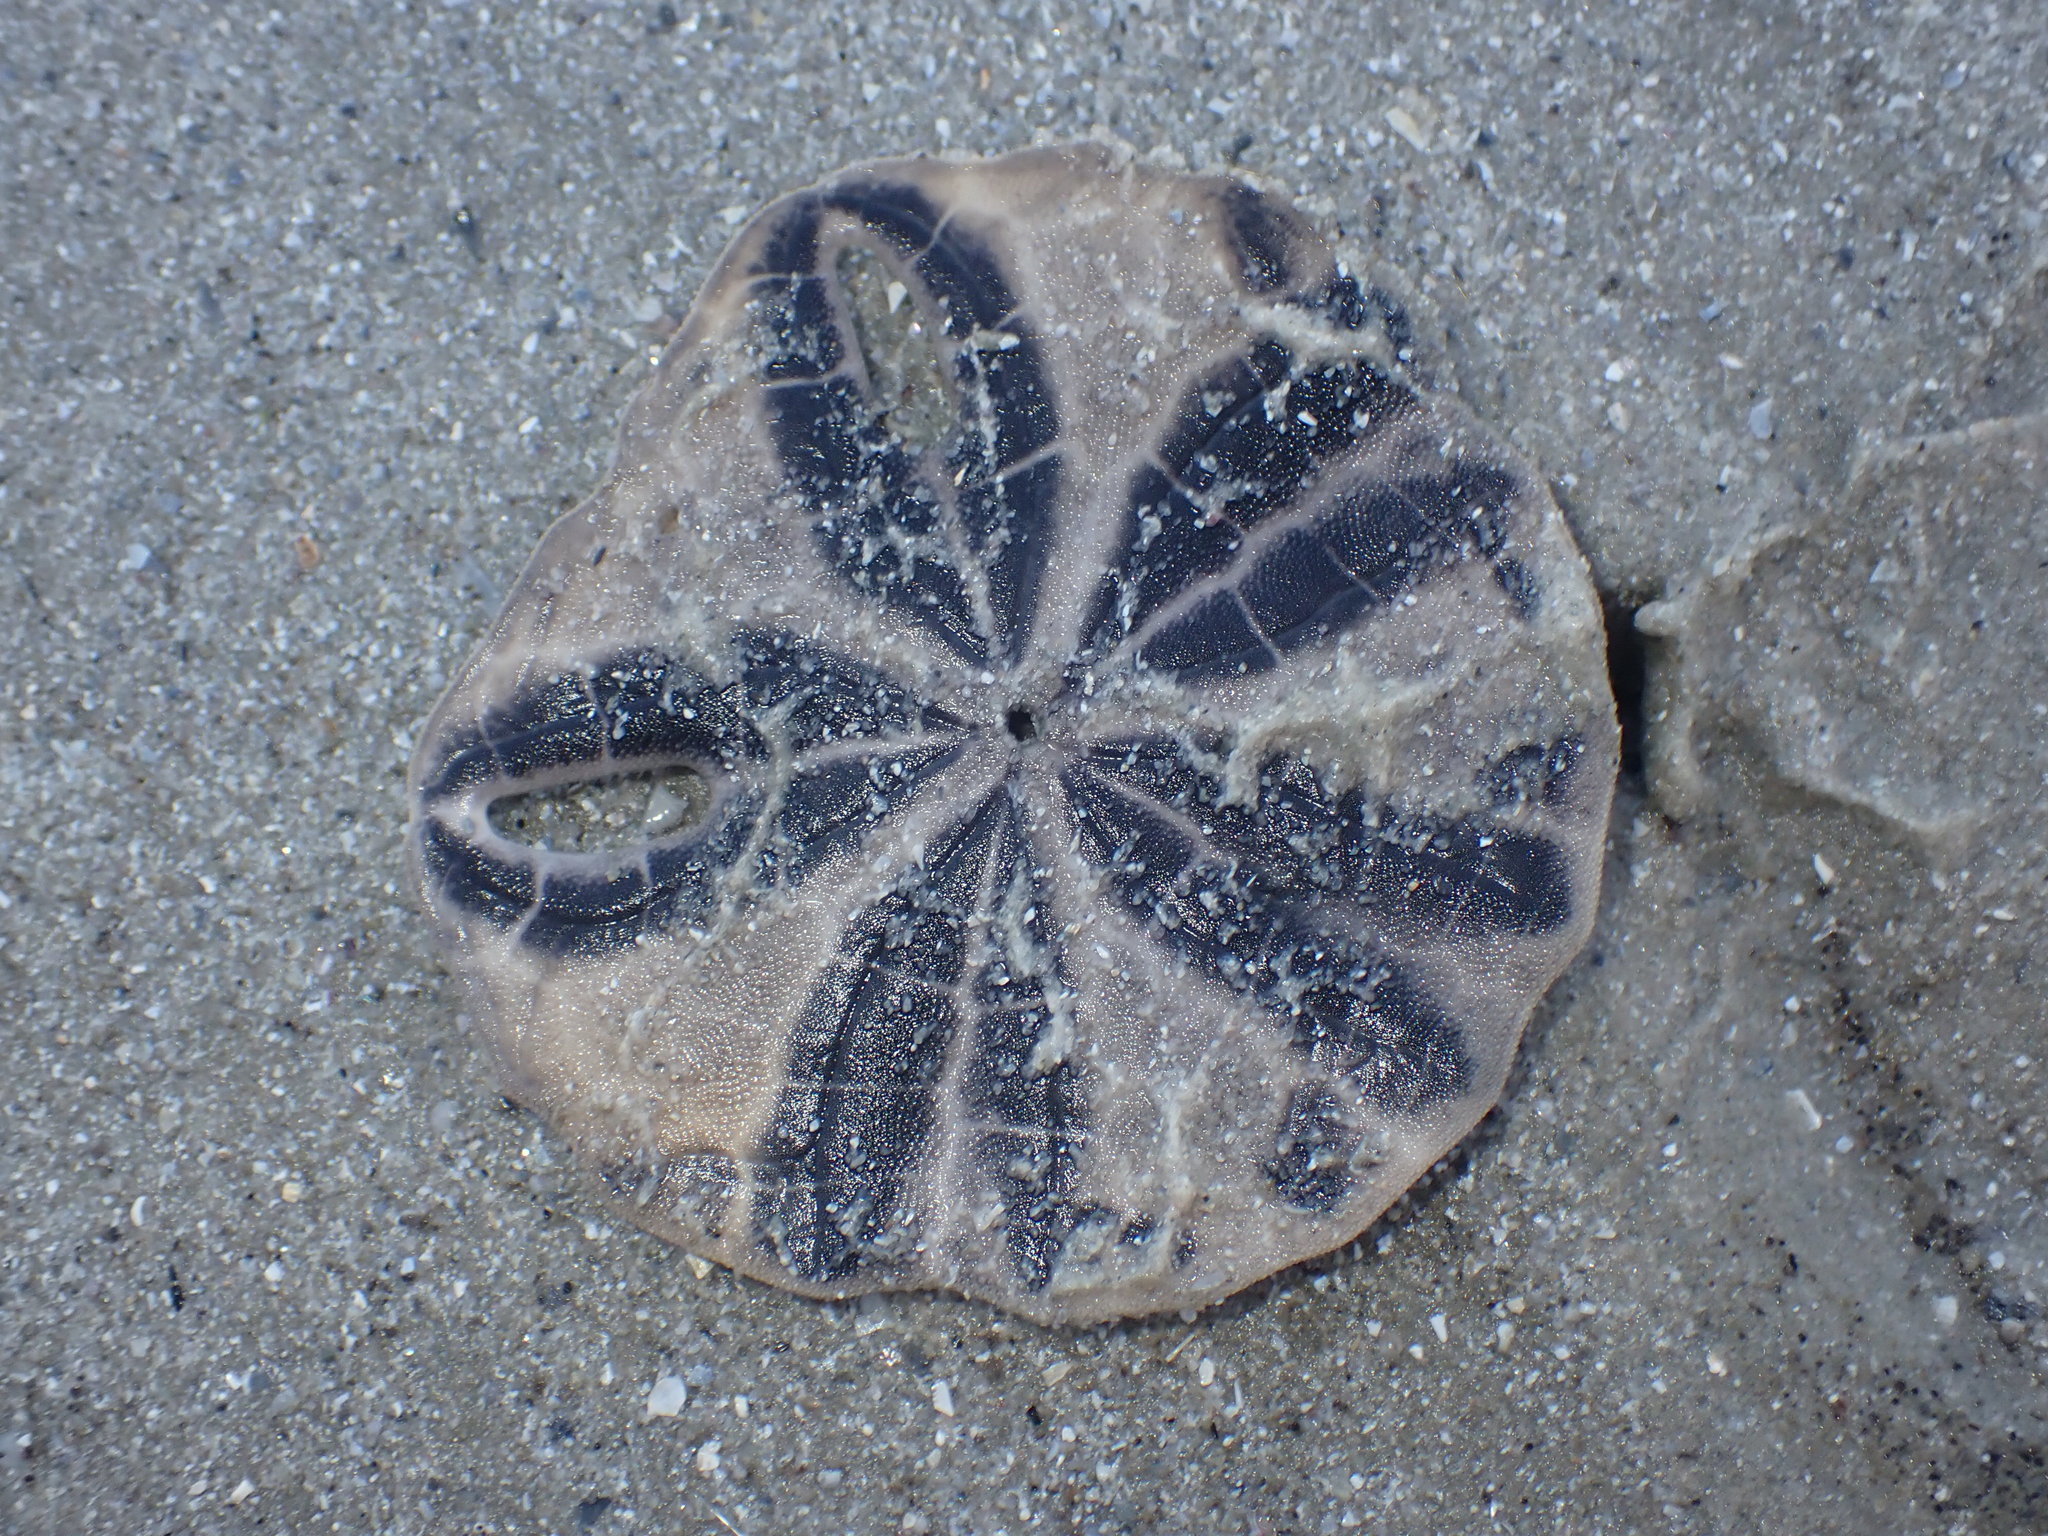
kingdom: Animalia
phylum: Echinodermata
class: Echinoidea
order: Echinolampadacea
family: Astriclypeidae
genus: Echinodiscus
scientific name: Echinodiscus andamanensis
